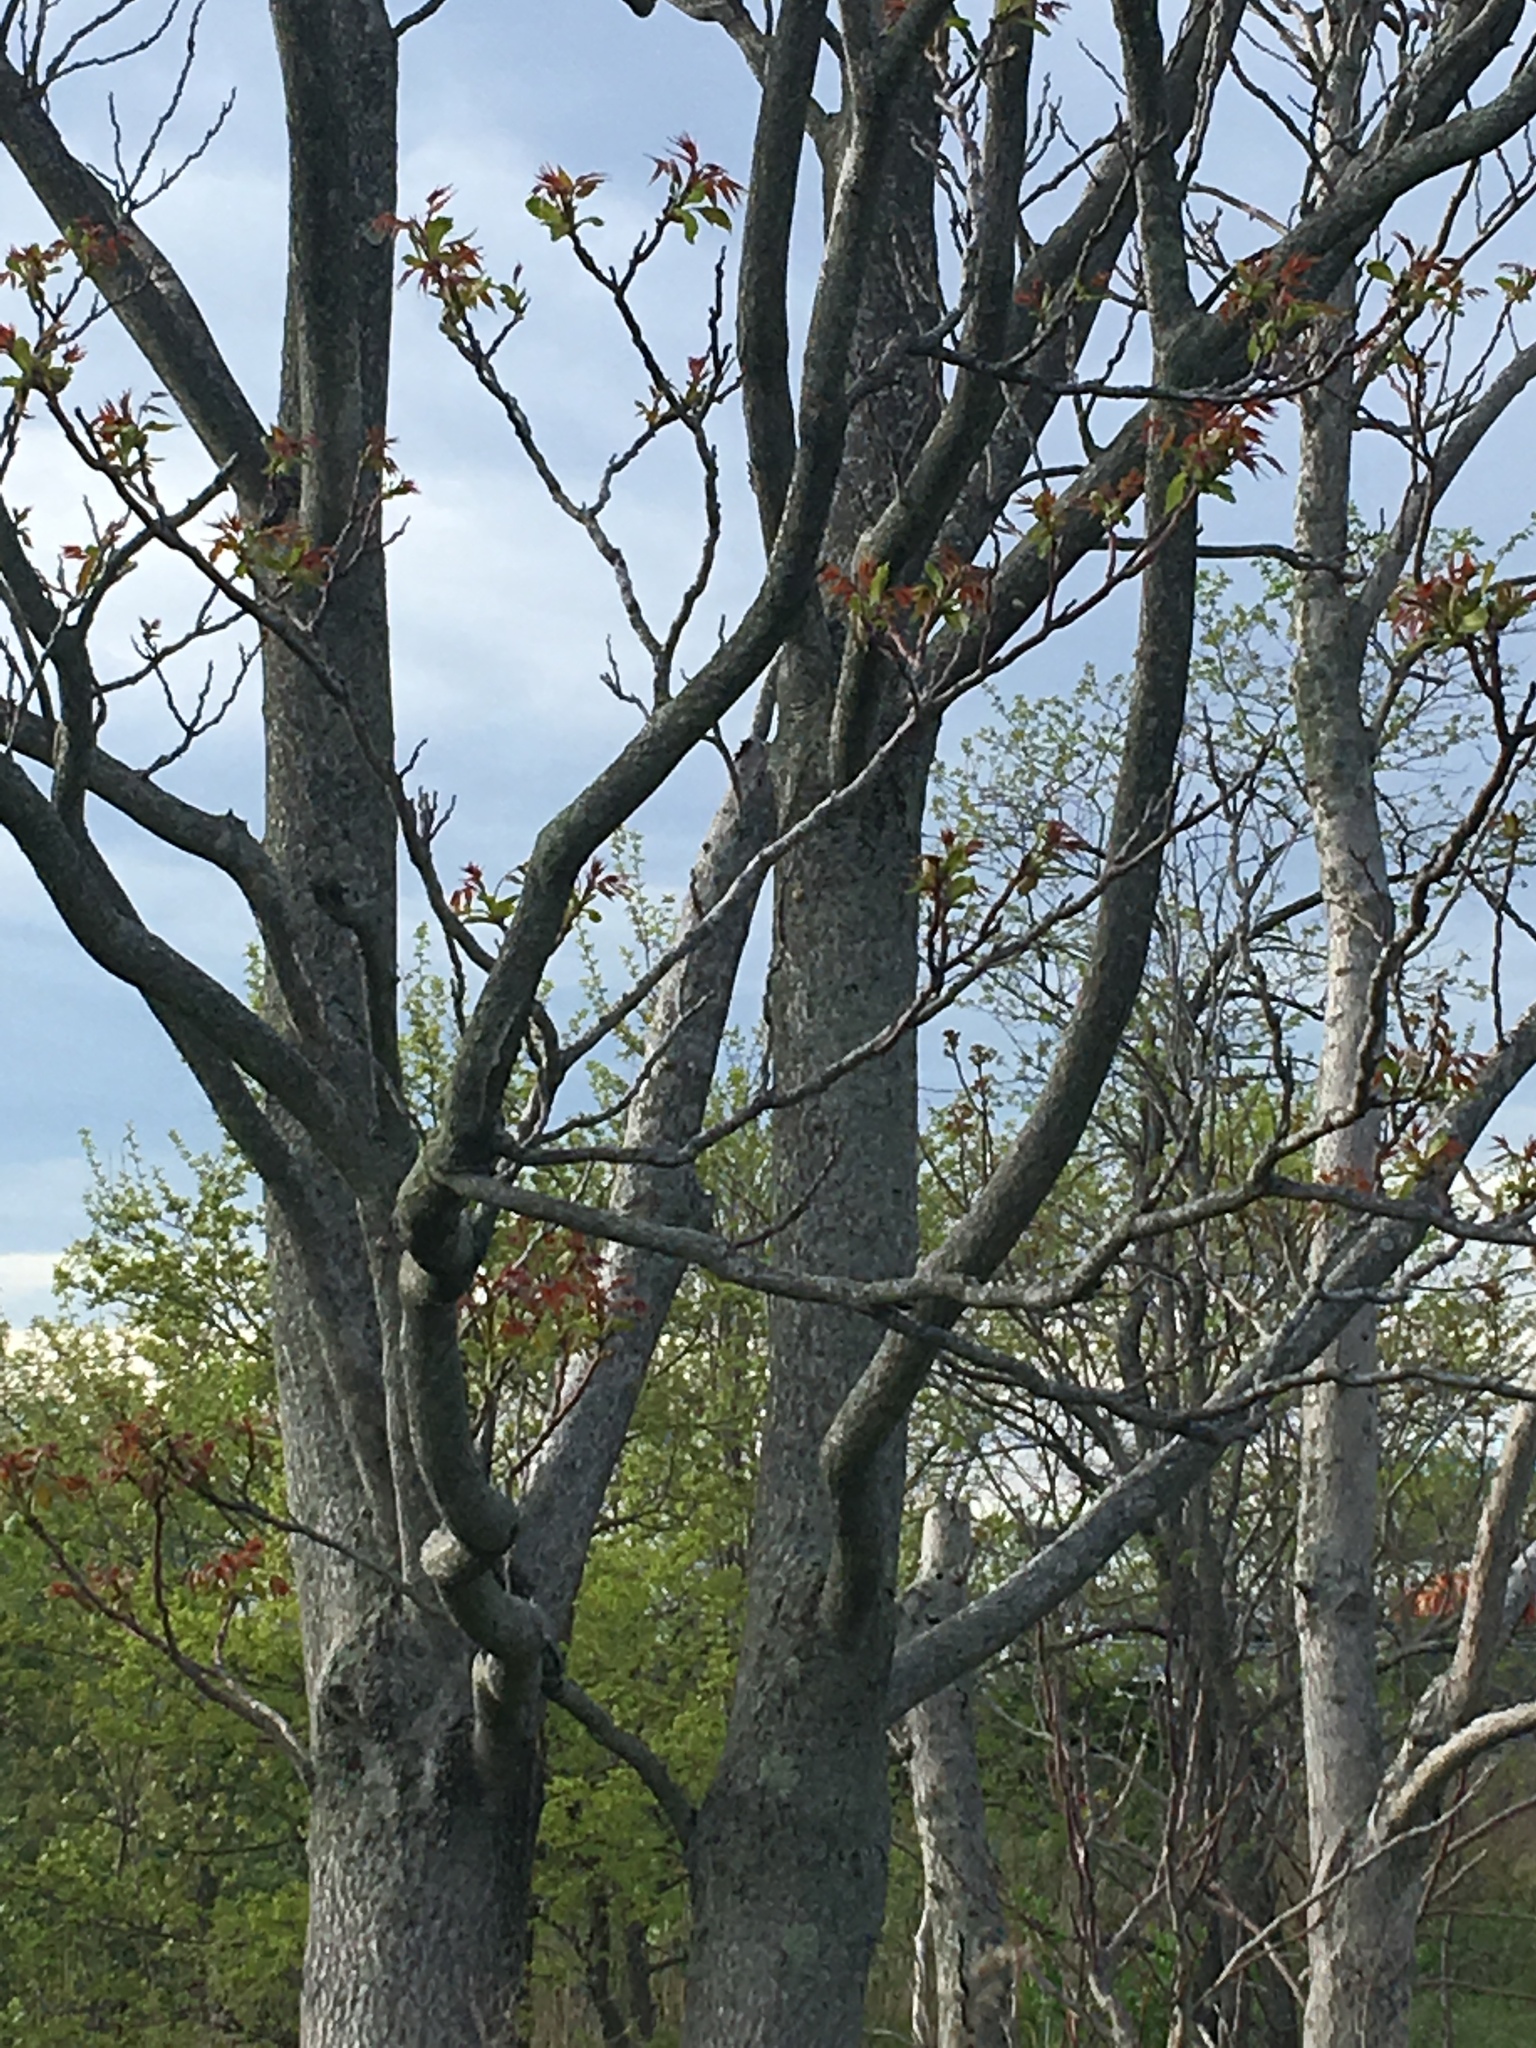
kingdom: Plantae
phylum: Tracheophyta
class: Magnoliopsida
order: Sapindales
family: Simaroubaceae
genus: Ailanthus
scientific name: Ailanthus altissima
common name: Tree-of-heaven
